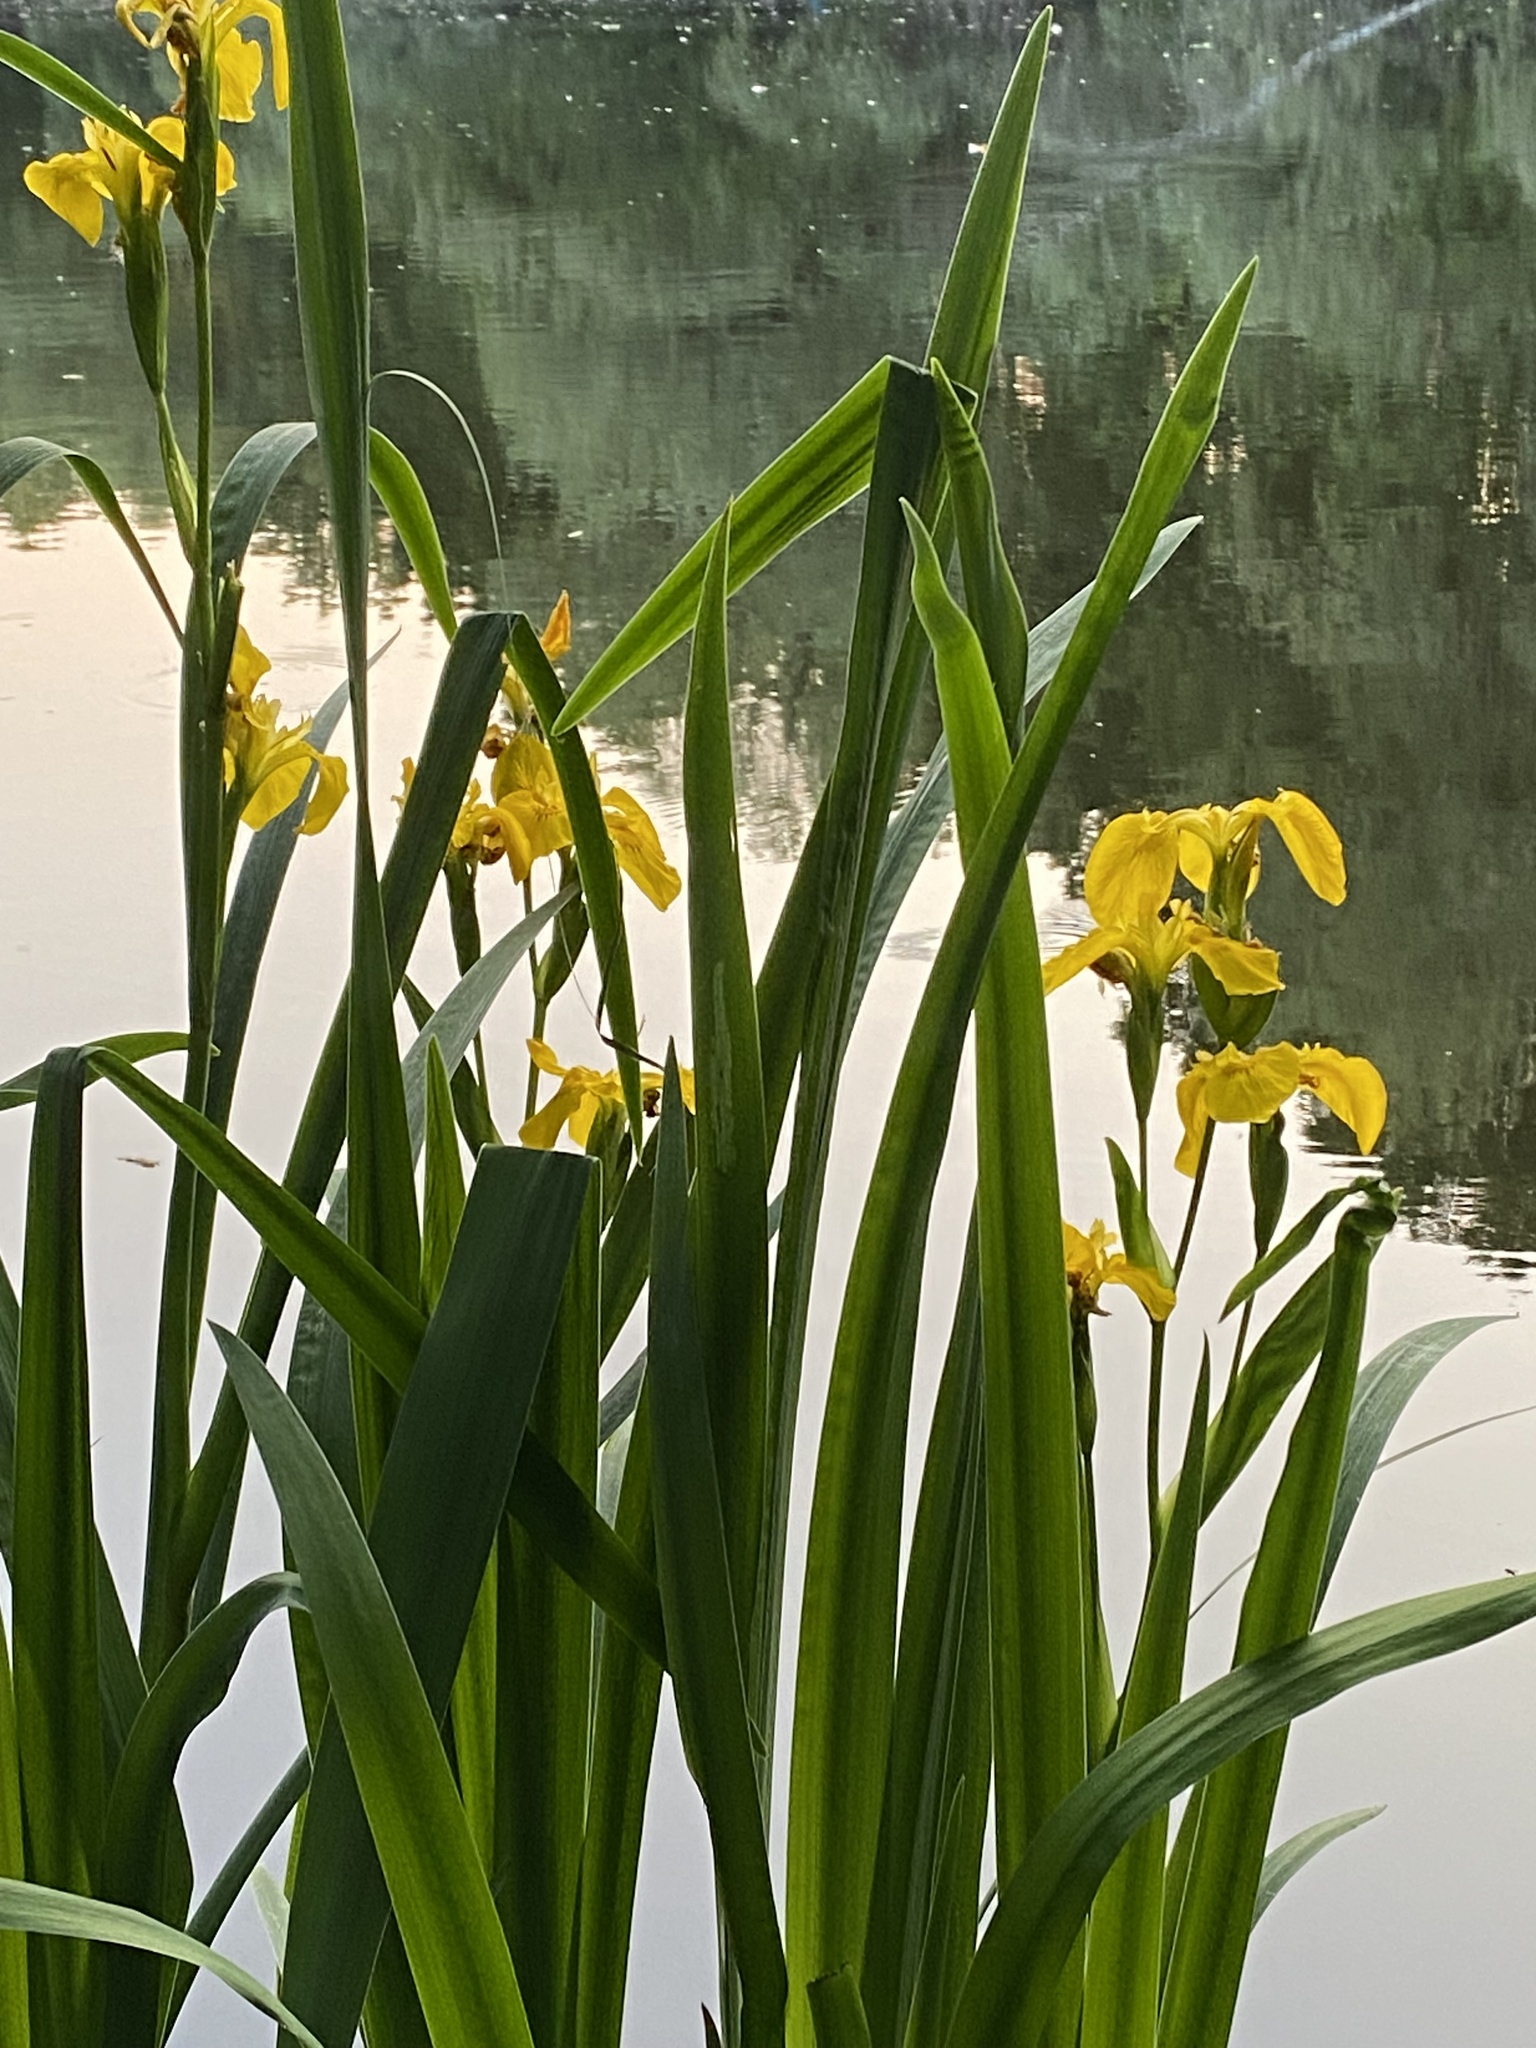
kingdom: Plantae
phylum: Tracheophyta
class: Liliopsida
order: Asparagales
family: Iridaceae
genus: Iris
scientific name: Iris pseudacorus
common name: Yellow flag
